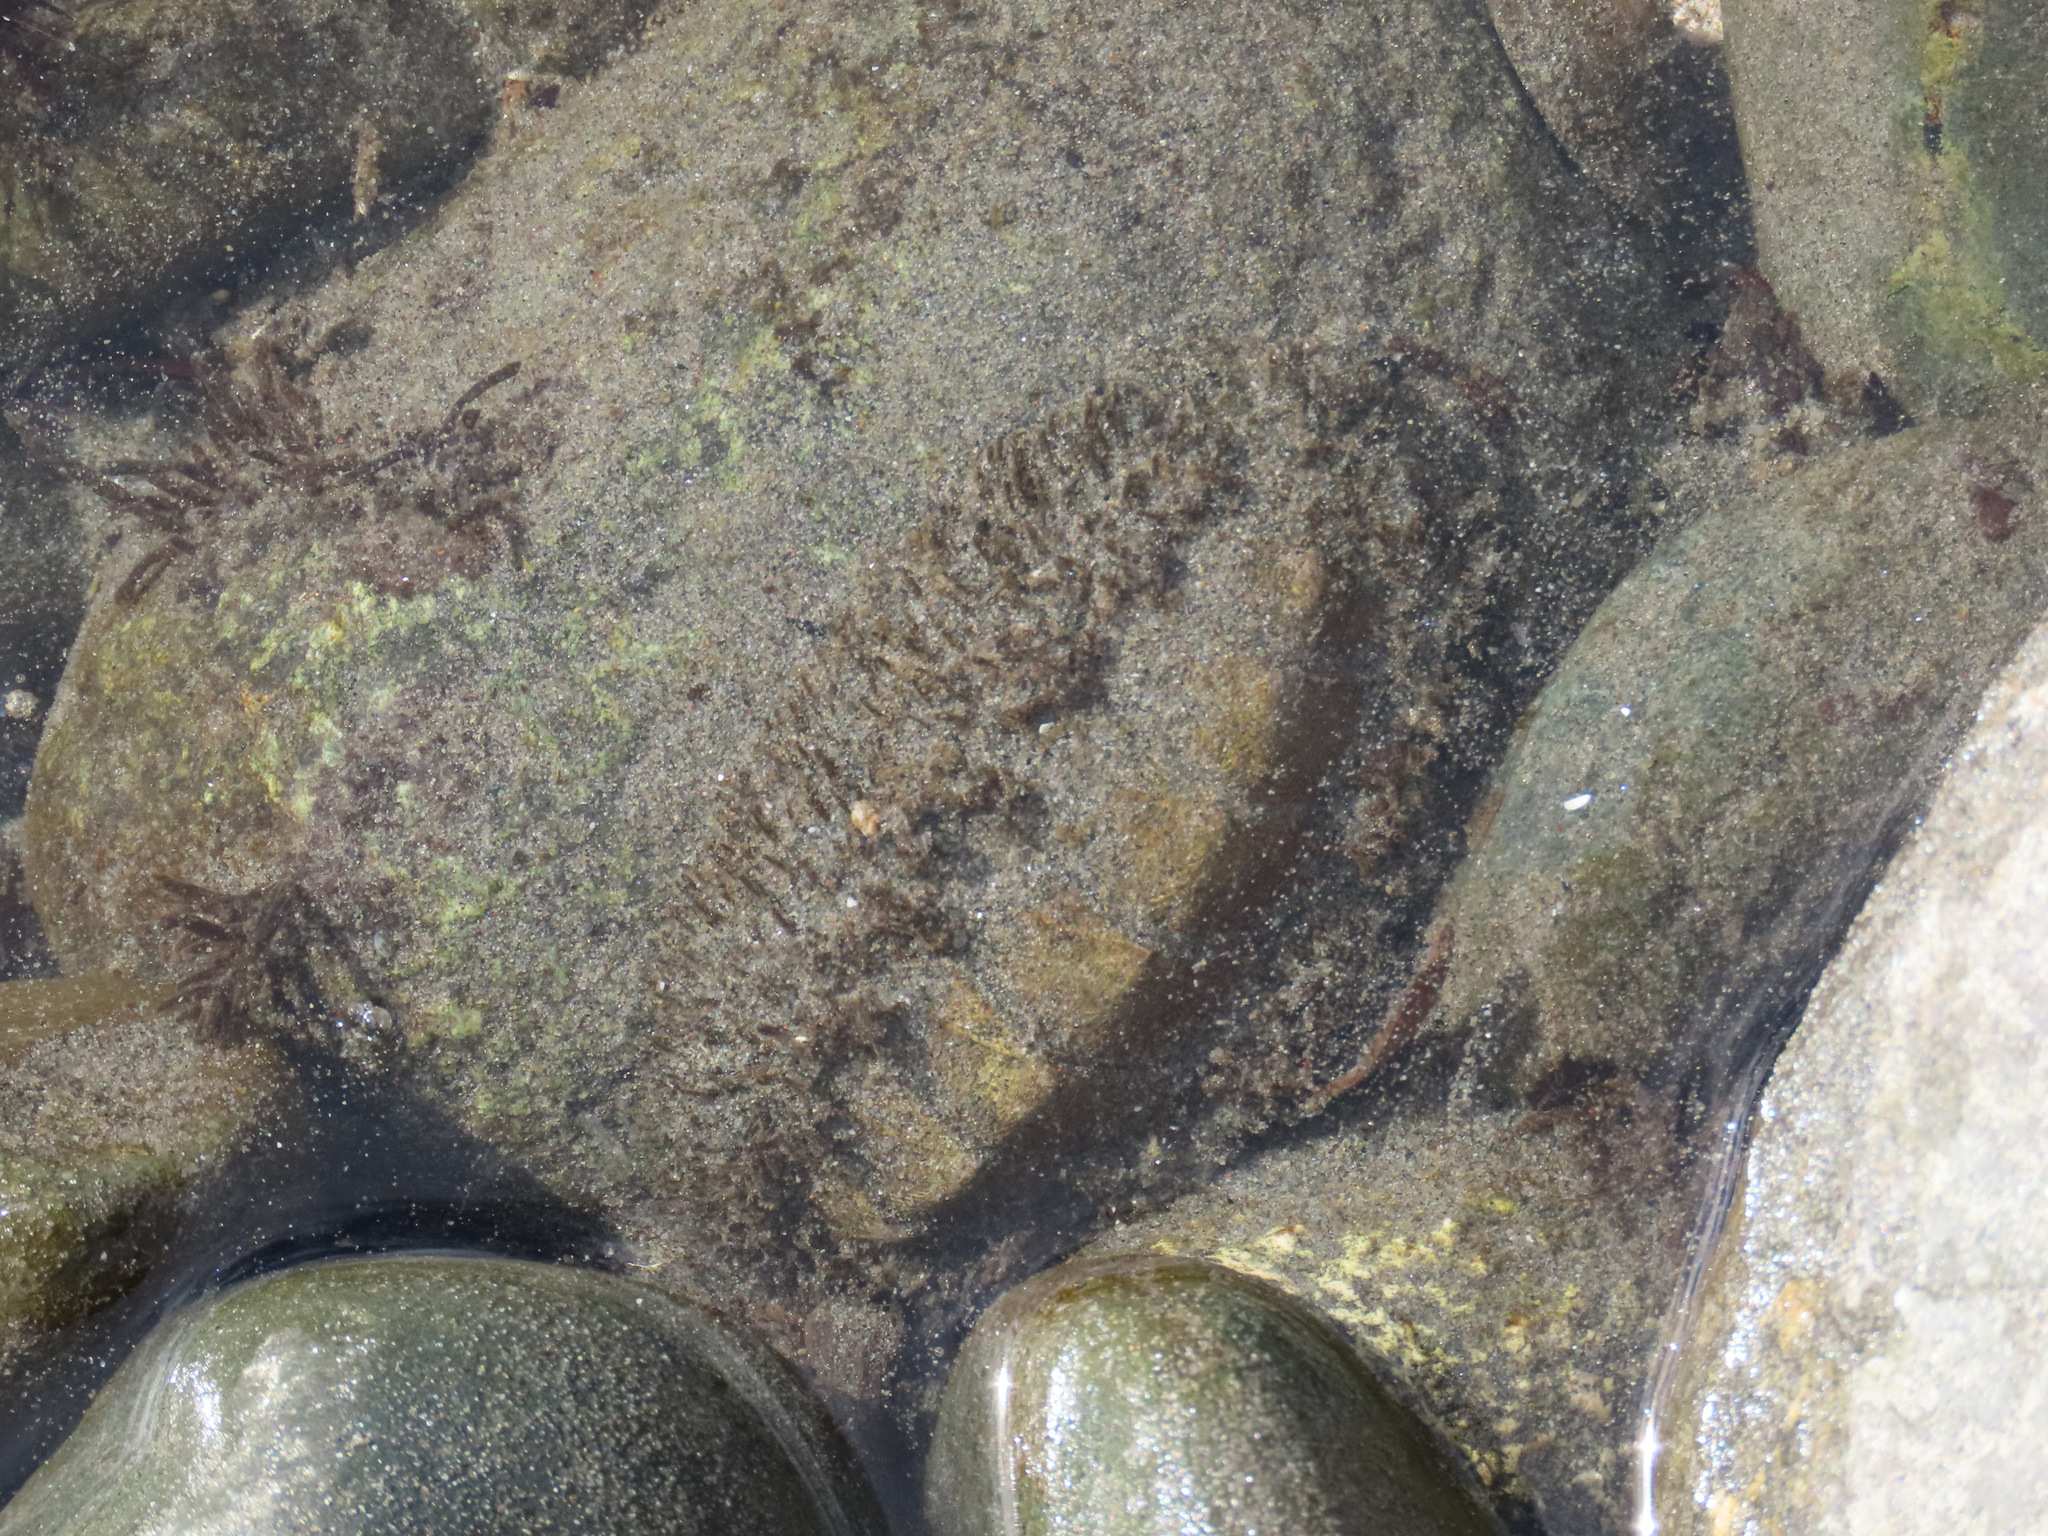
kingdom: Animalia
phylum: Mollusca
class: Polyplacophora
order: Chitonida
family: Mopaliidae
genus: Mopalia
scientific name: Mopalia muscosa
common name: Mossy chiton
